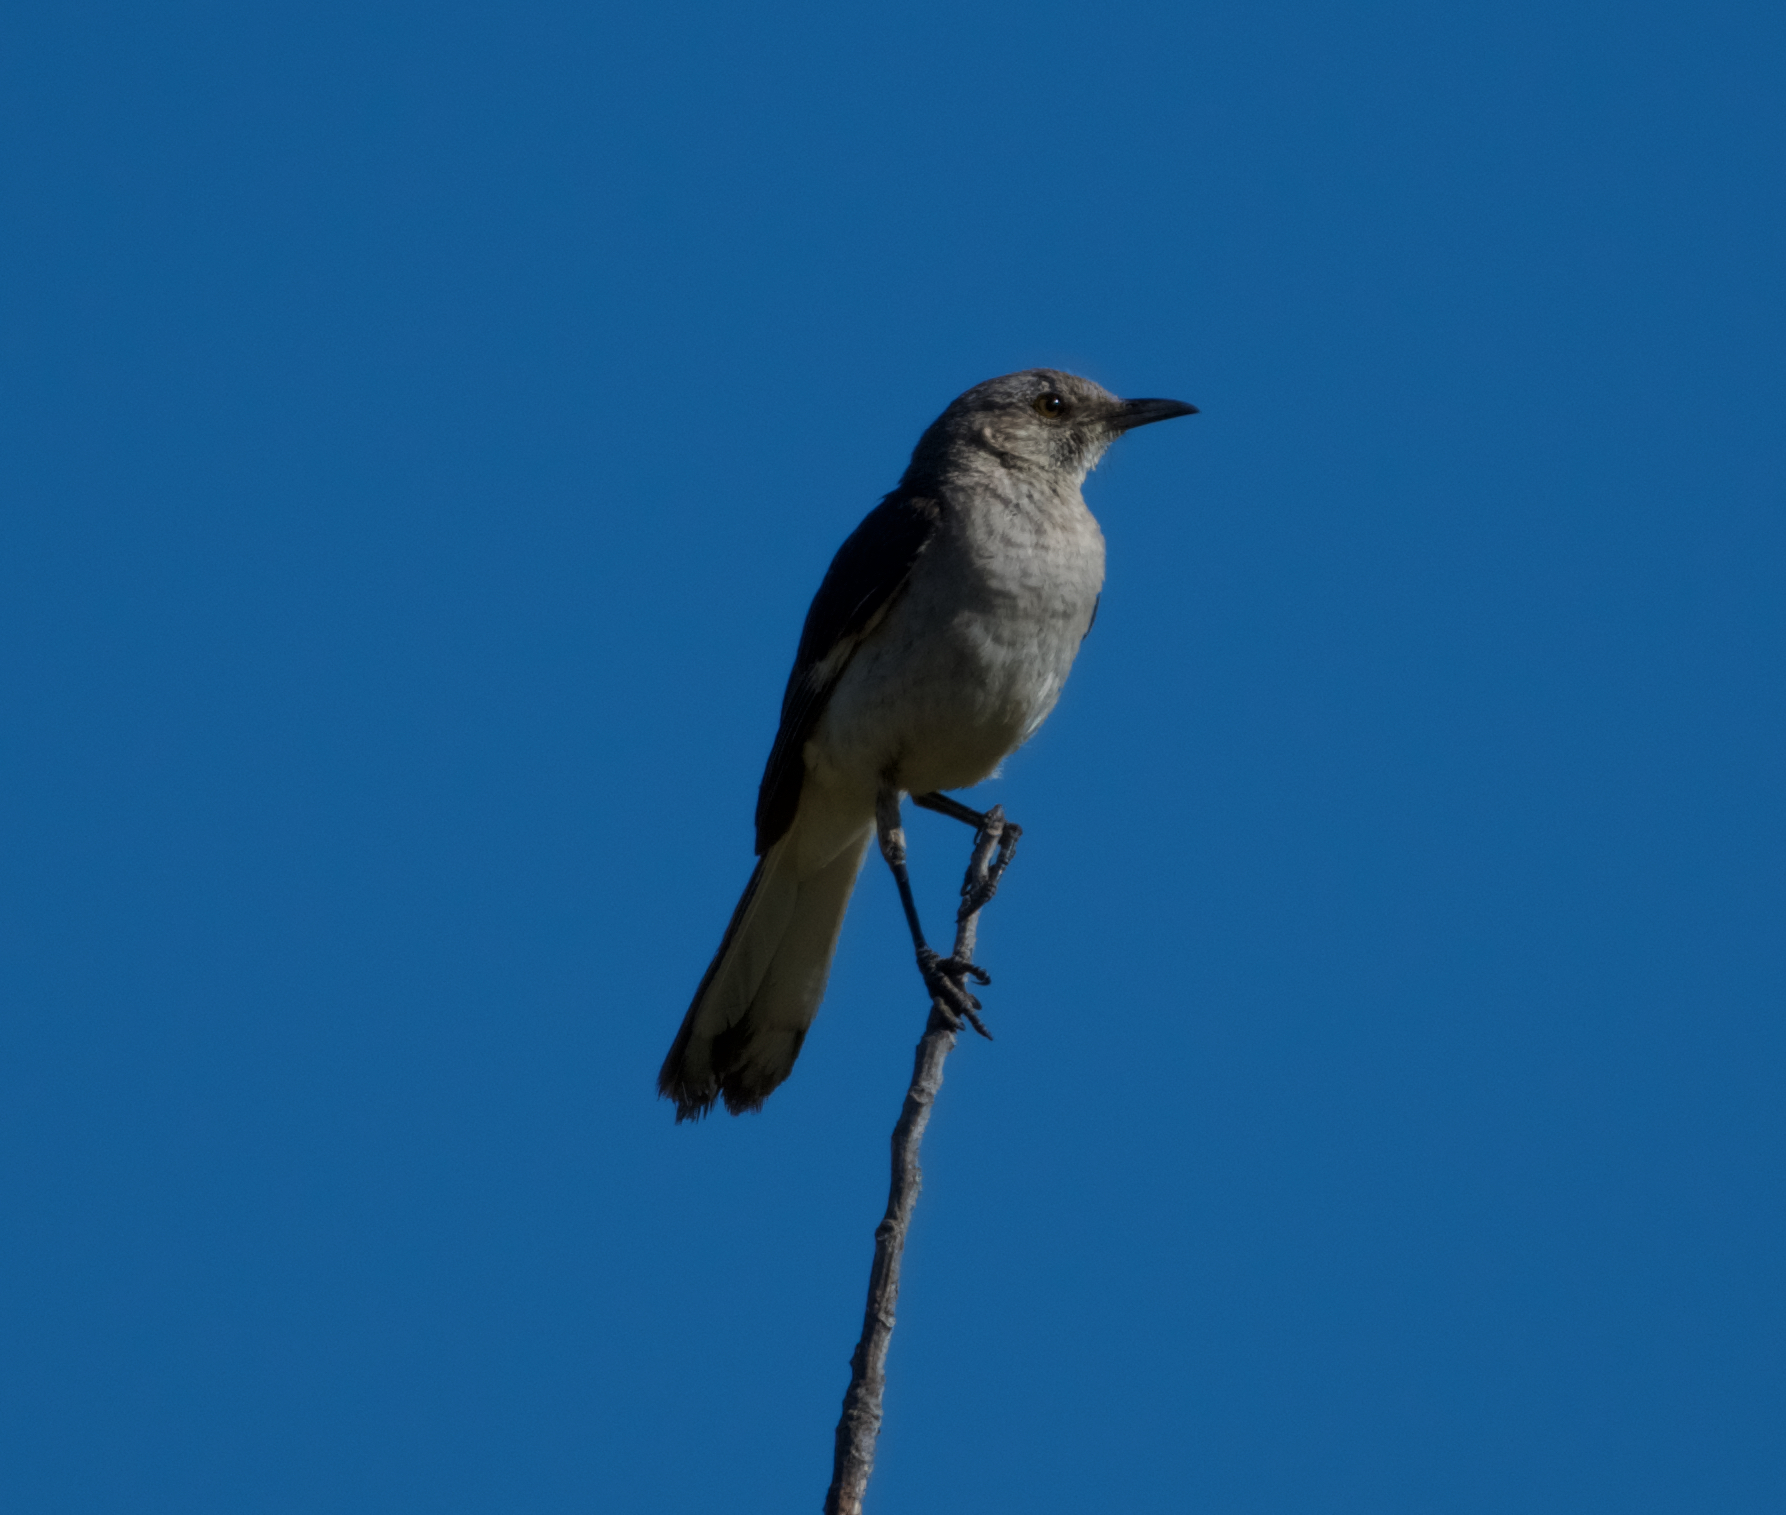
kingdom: Animalia
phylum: Chordata
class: Aves
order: Passeriformes
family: Mimidae
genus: Mimus
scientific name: Mimus polyglottos
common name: Northern mockingbird
